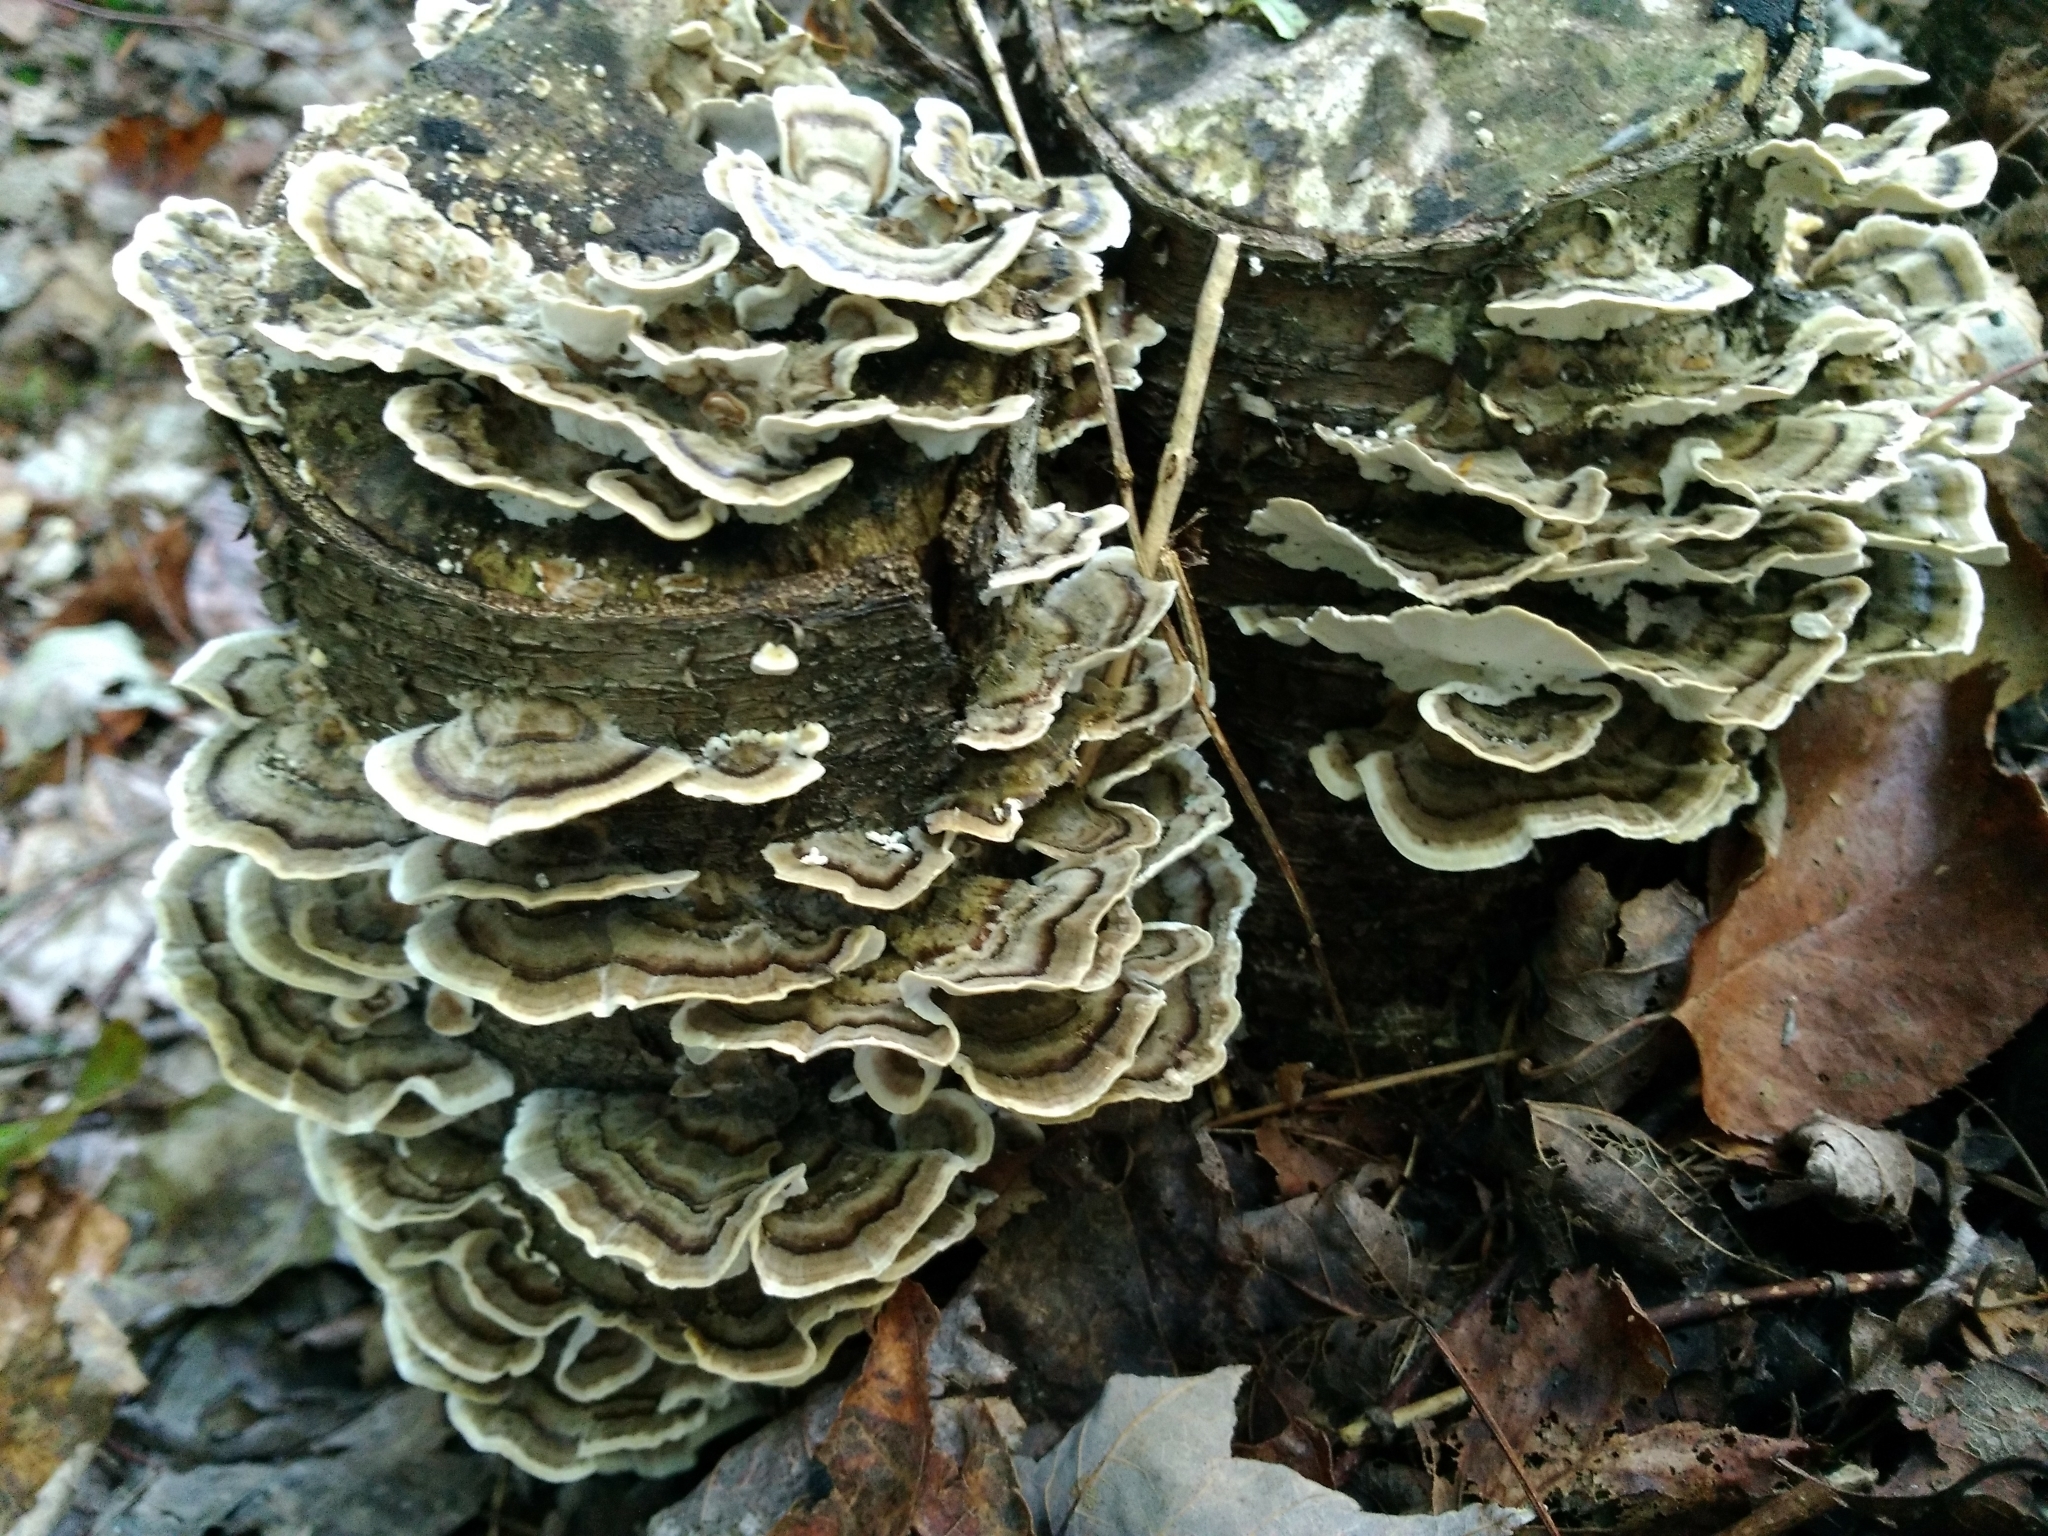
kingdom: Fungi
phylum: Basidiomycota
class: Agaricomycetes
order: Polyporales
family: Polyporaceae
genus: Trametes
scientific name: Trametes versicolor
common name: Turkeytail
